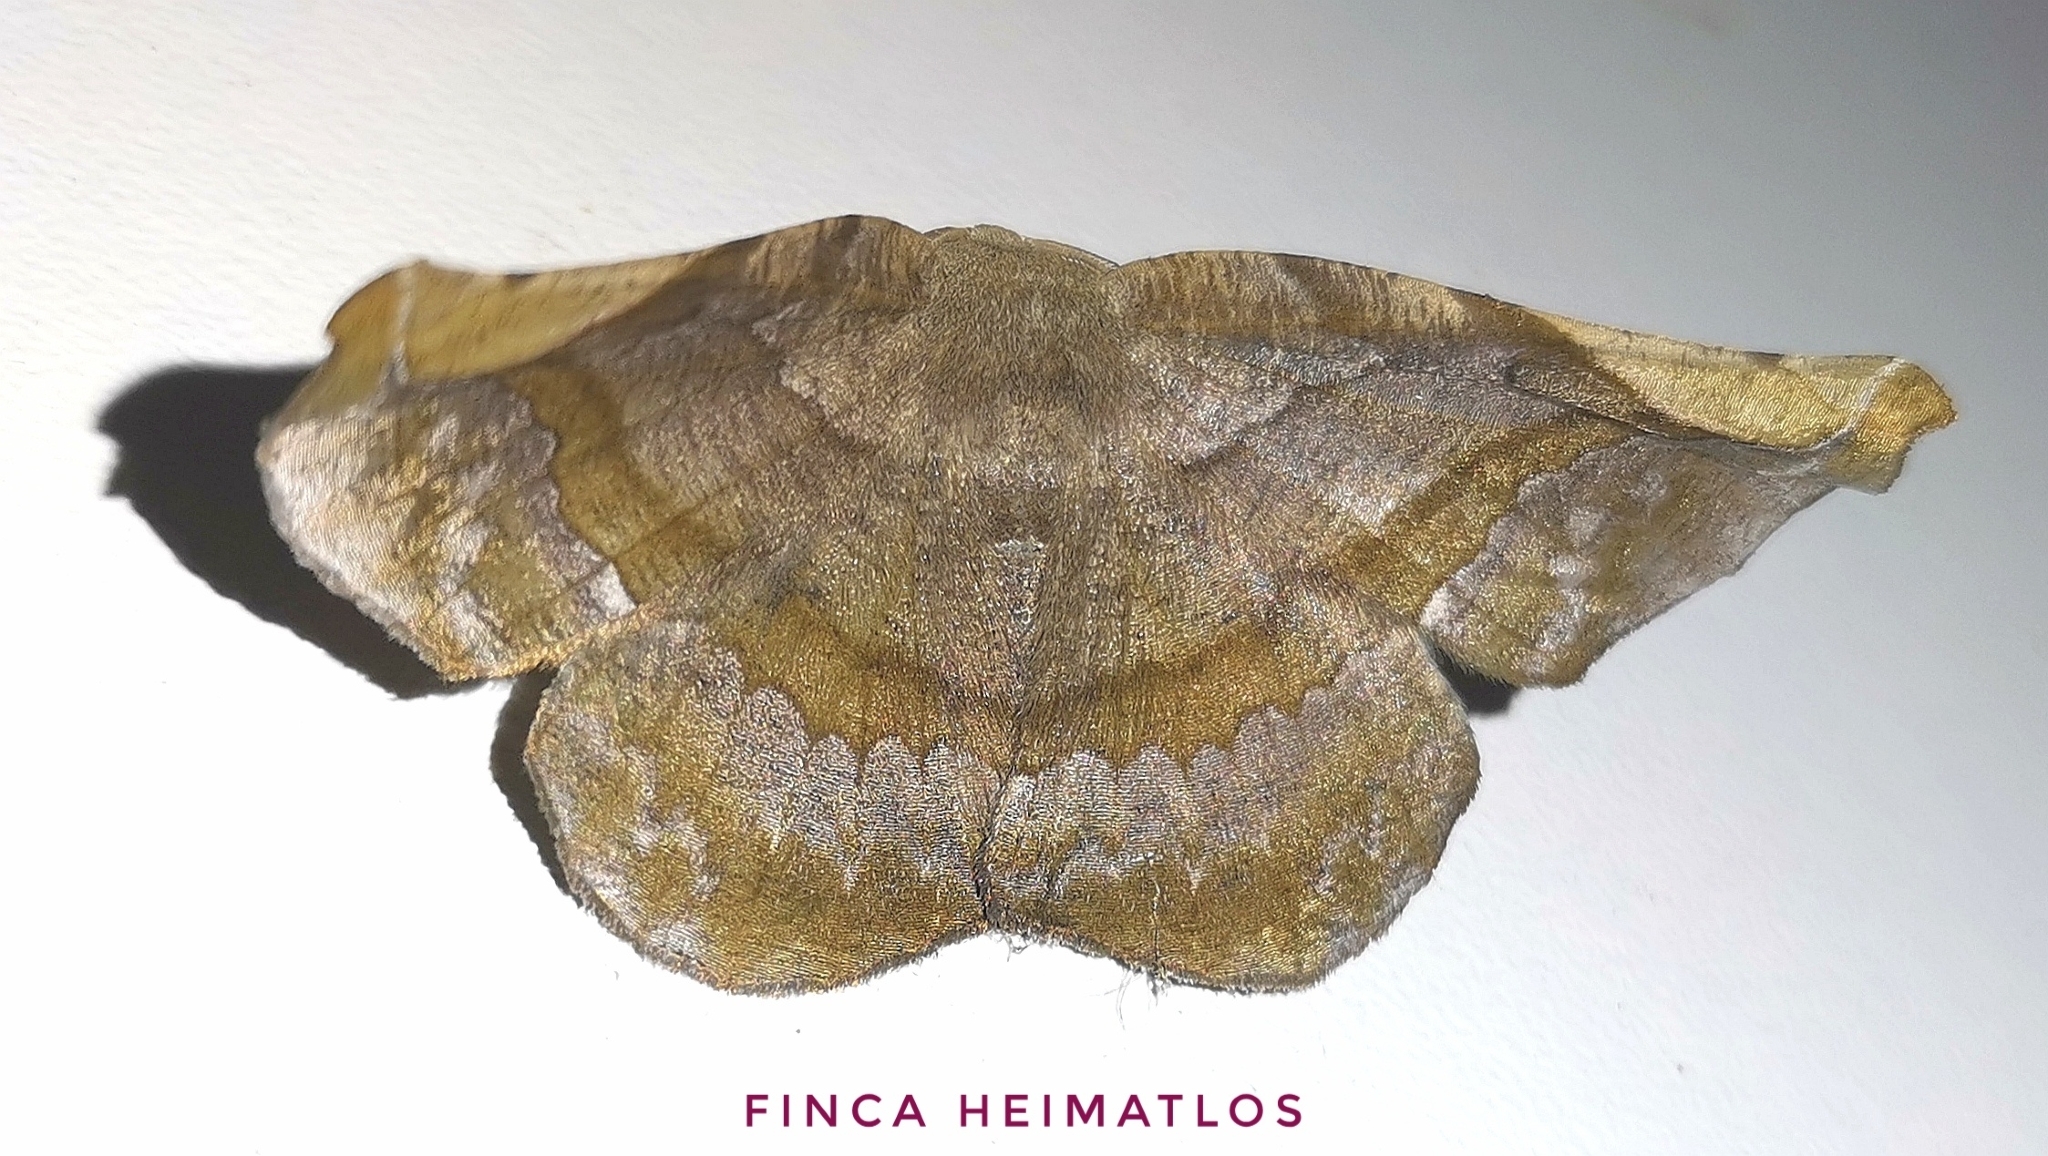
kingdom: Animalia
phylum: Arthropoda
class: Insecta
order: Lepidoptera
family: Geometridae
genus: Hygrochroma
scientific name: Hygrochroma olivinaria
